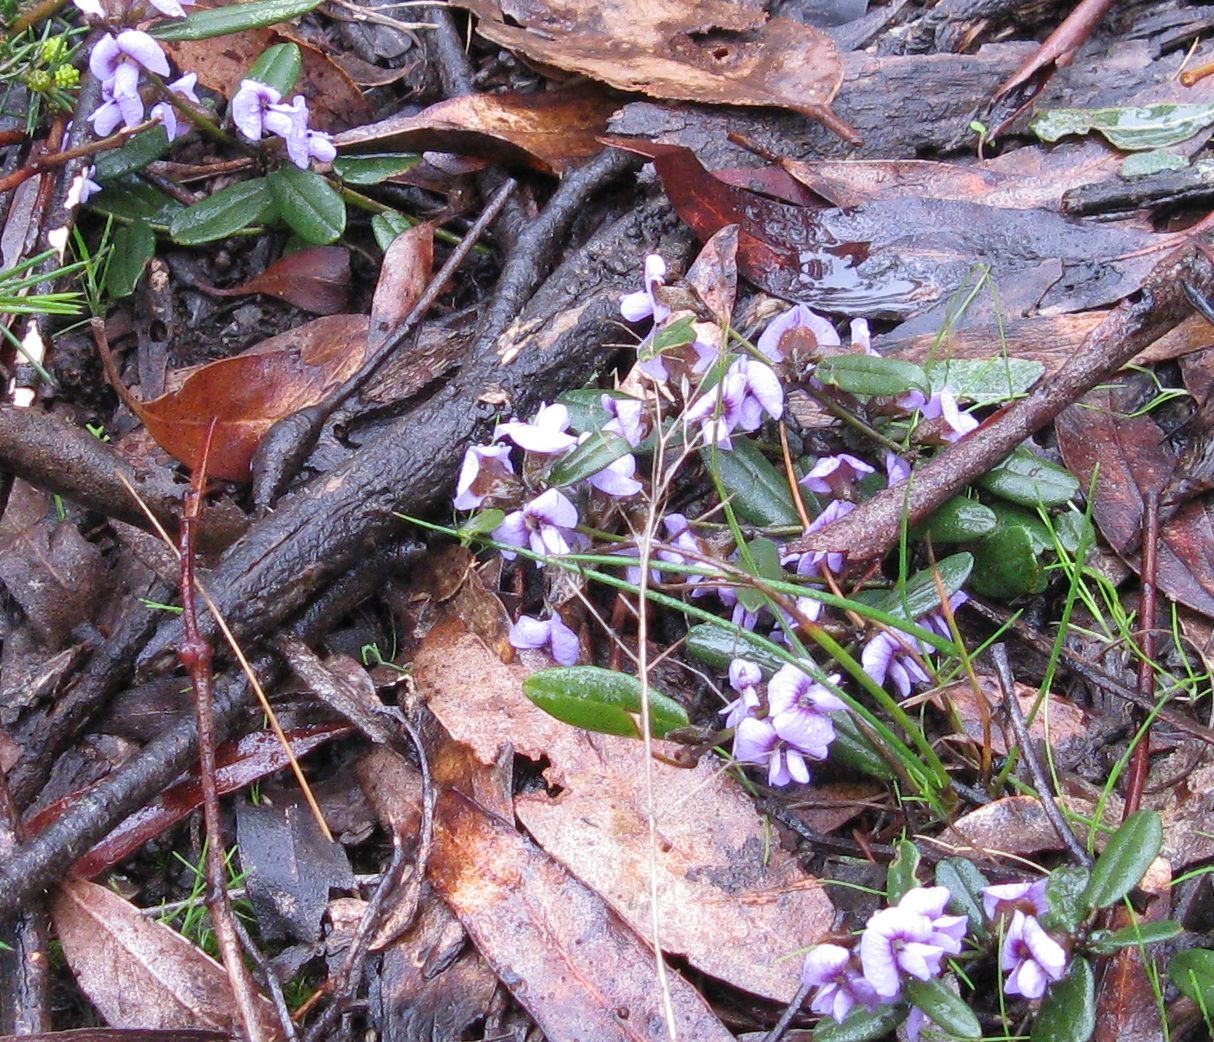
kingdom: Plantae
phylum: Tracheophyta
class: Magnoliopsida
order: Fabales
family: Fabaceae
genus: Hovea
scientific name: Hovea heterophylla
